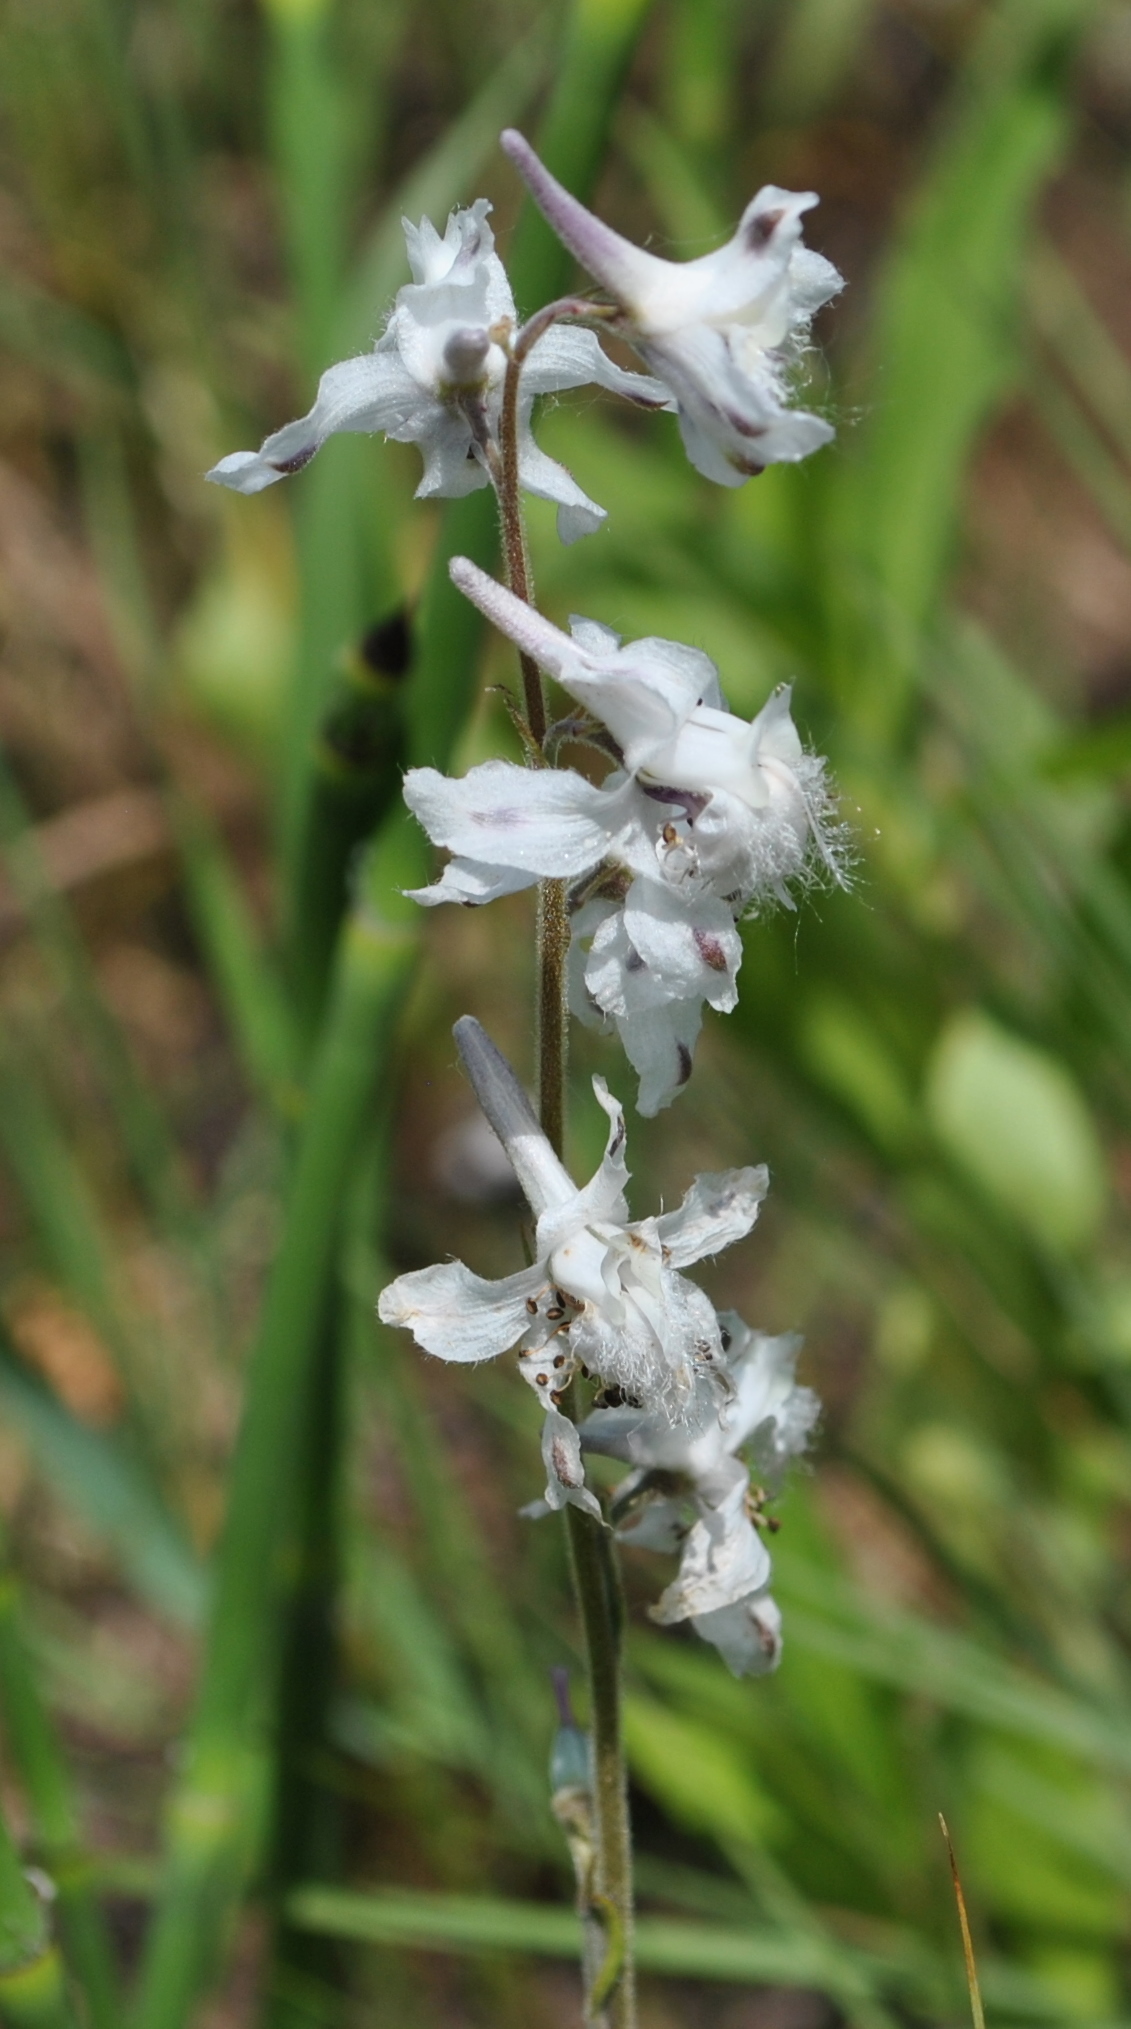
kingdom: Plantae
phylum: Tracheophyta
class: Magnoliopsida
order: Ranunculales
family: Ranunculaceae
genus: Delphinium
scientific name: Delphinium carolinianum
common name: Carolina larkspur
